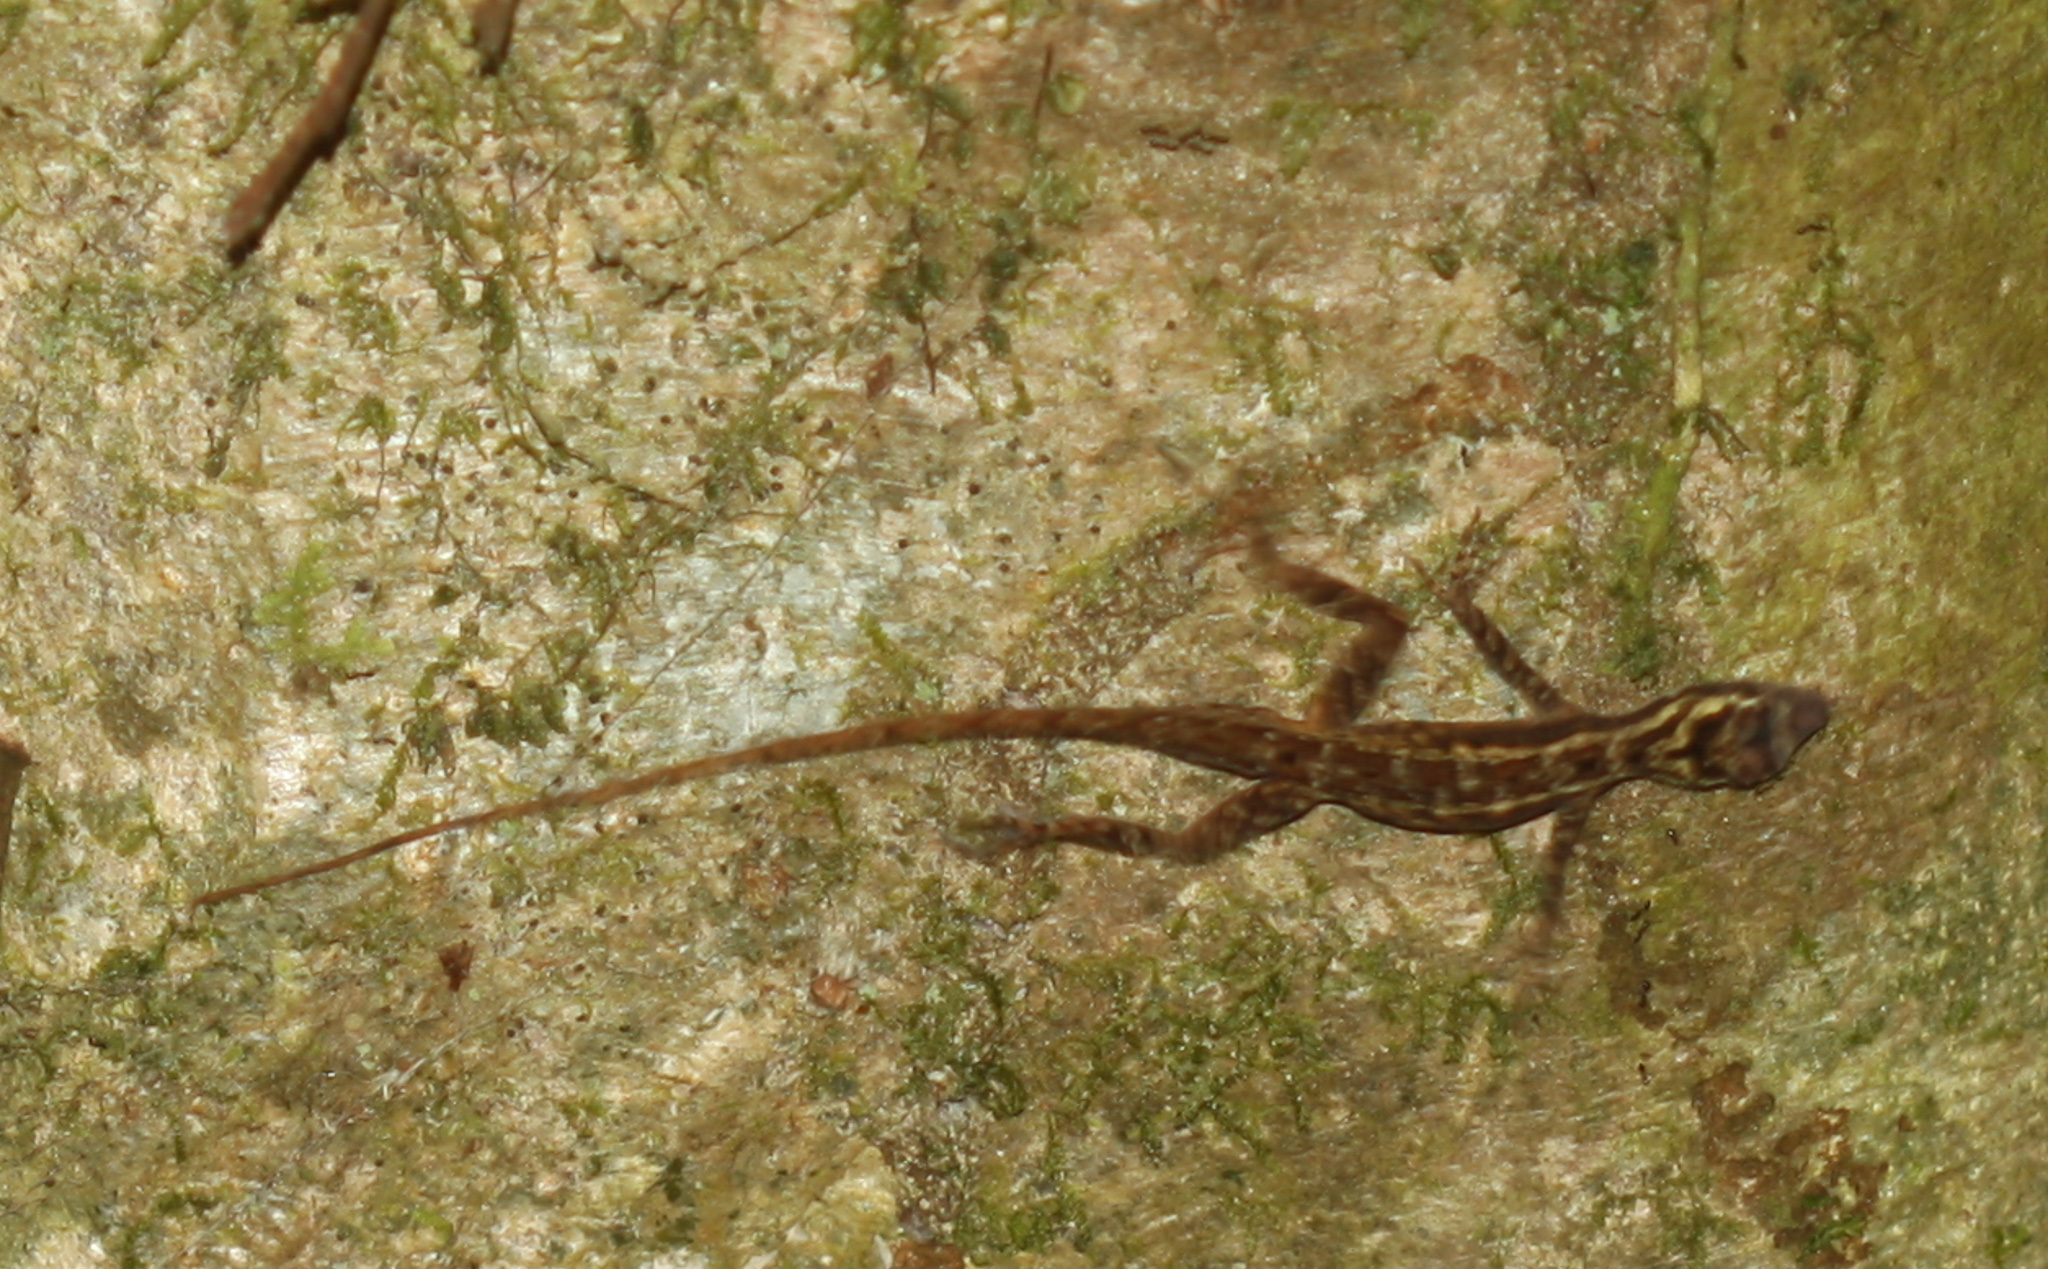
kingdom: Animalia
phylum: Chordata
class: Squamata
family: Dactyloidae
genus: Anolis
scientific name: Anolis lemurinus
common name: Ghost anole
